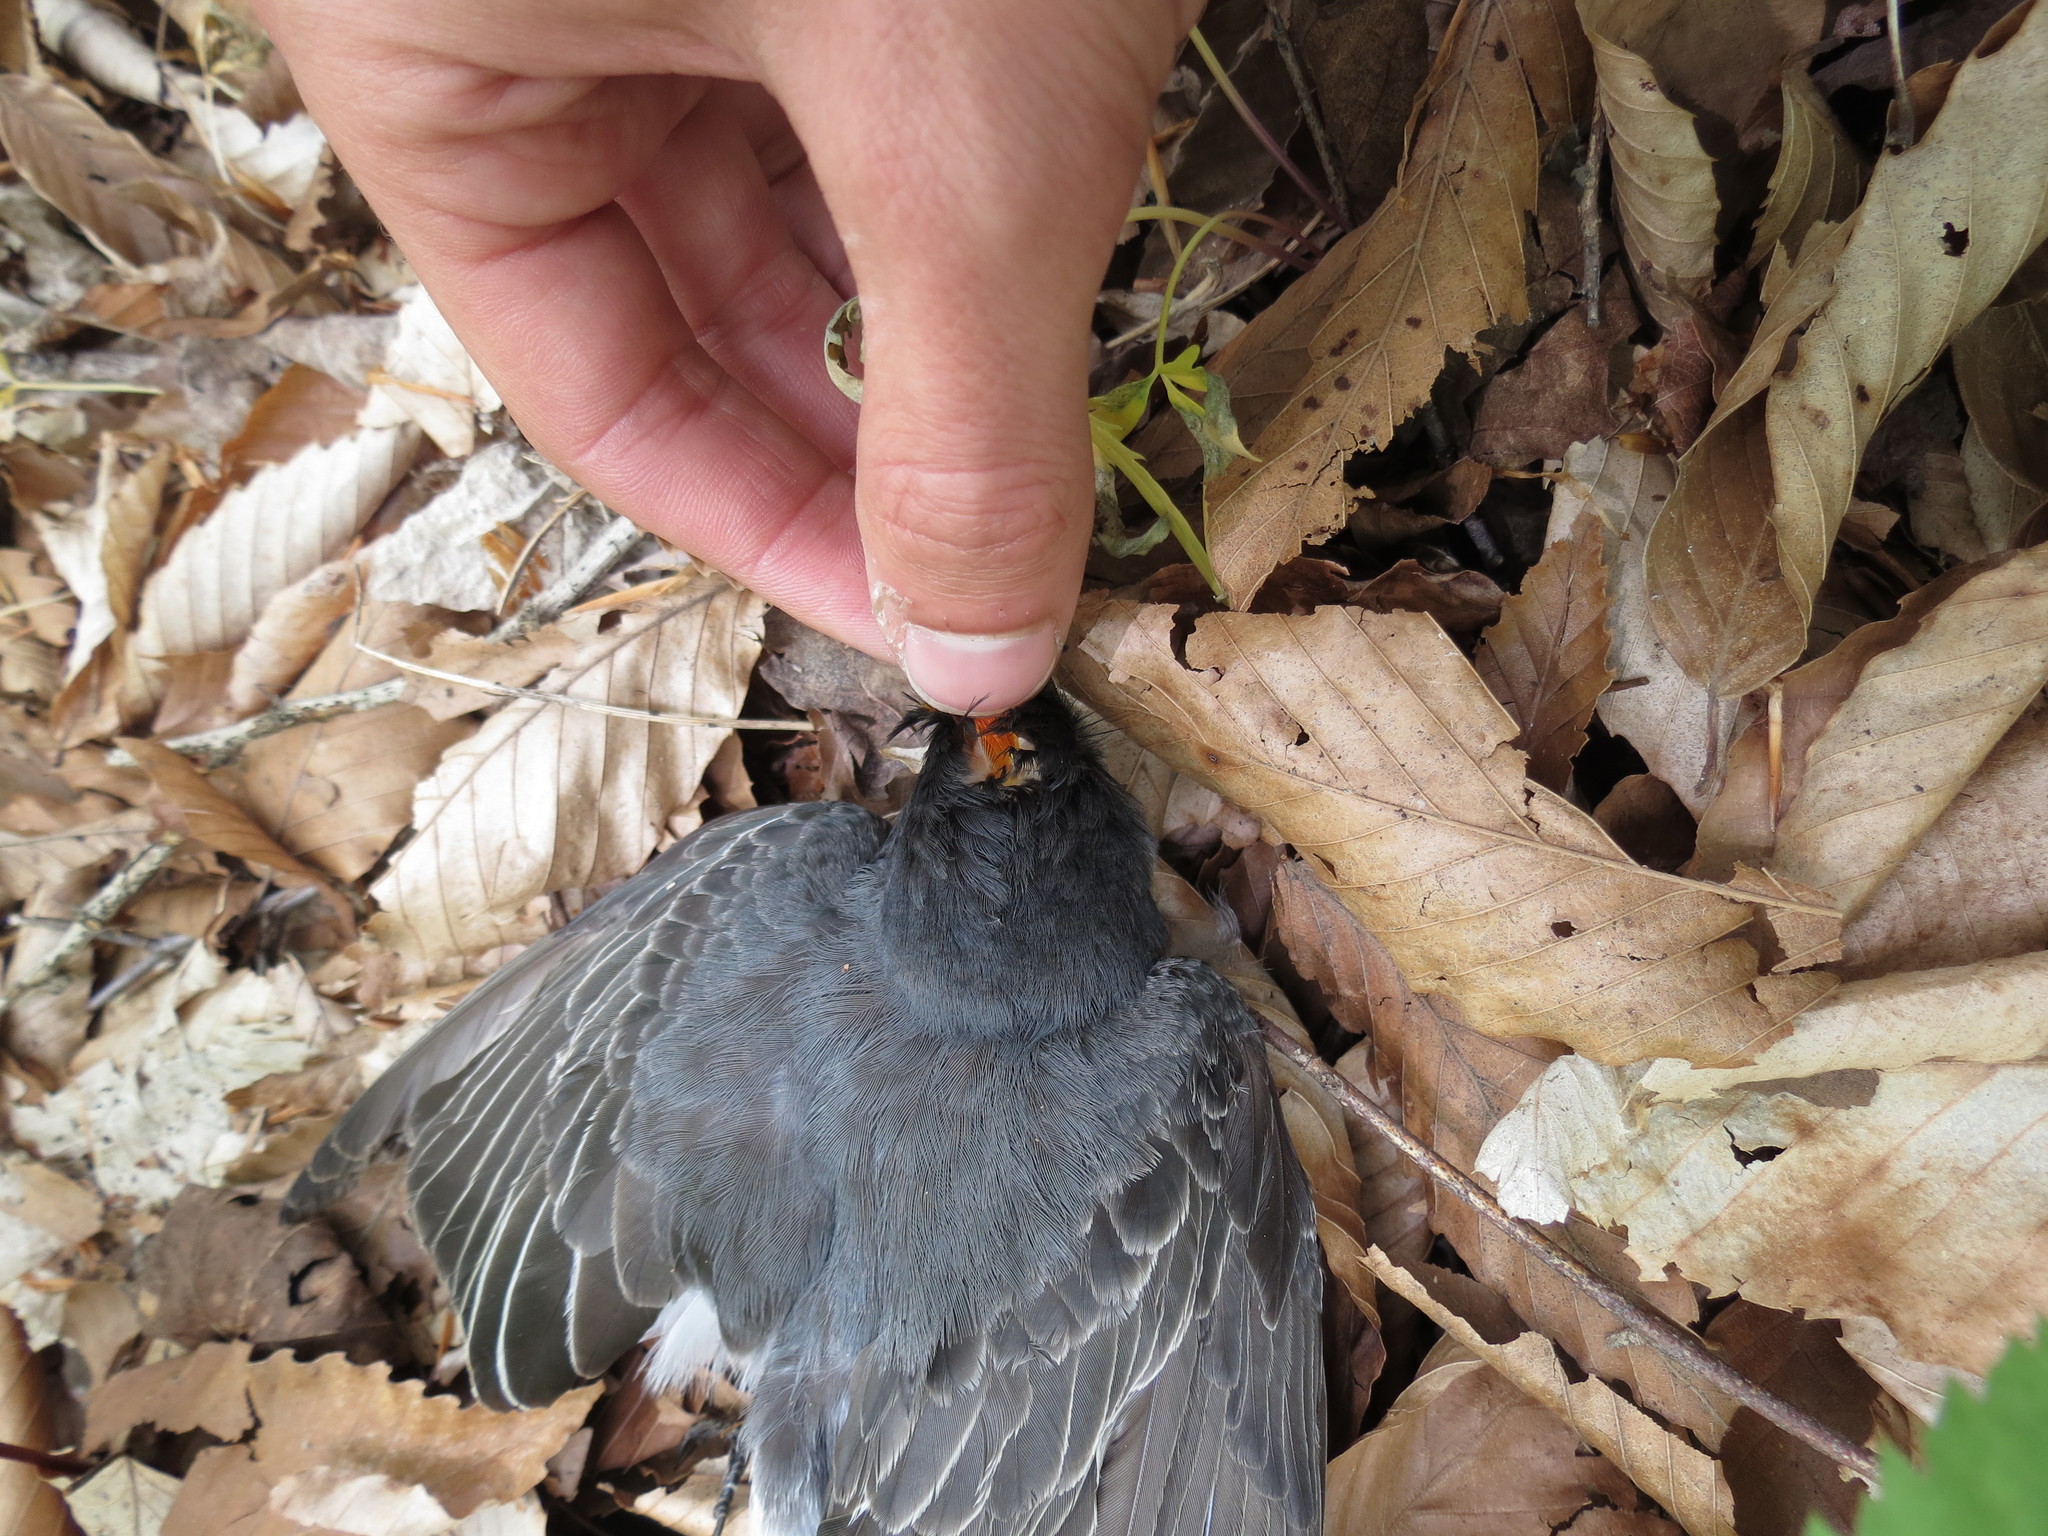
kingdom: Animalia
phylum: Chordata
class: Aves
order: Passeriformes
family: Tyrannidae
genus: Tyrannus
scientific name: Tyrannus tyrannus
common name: Eastern kingbird
